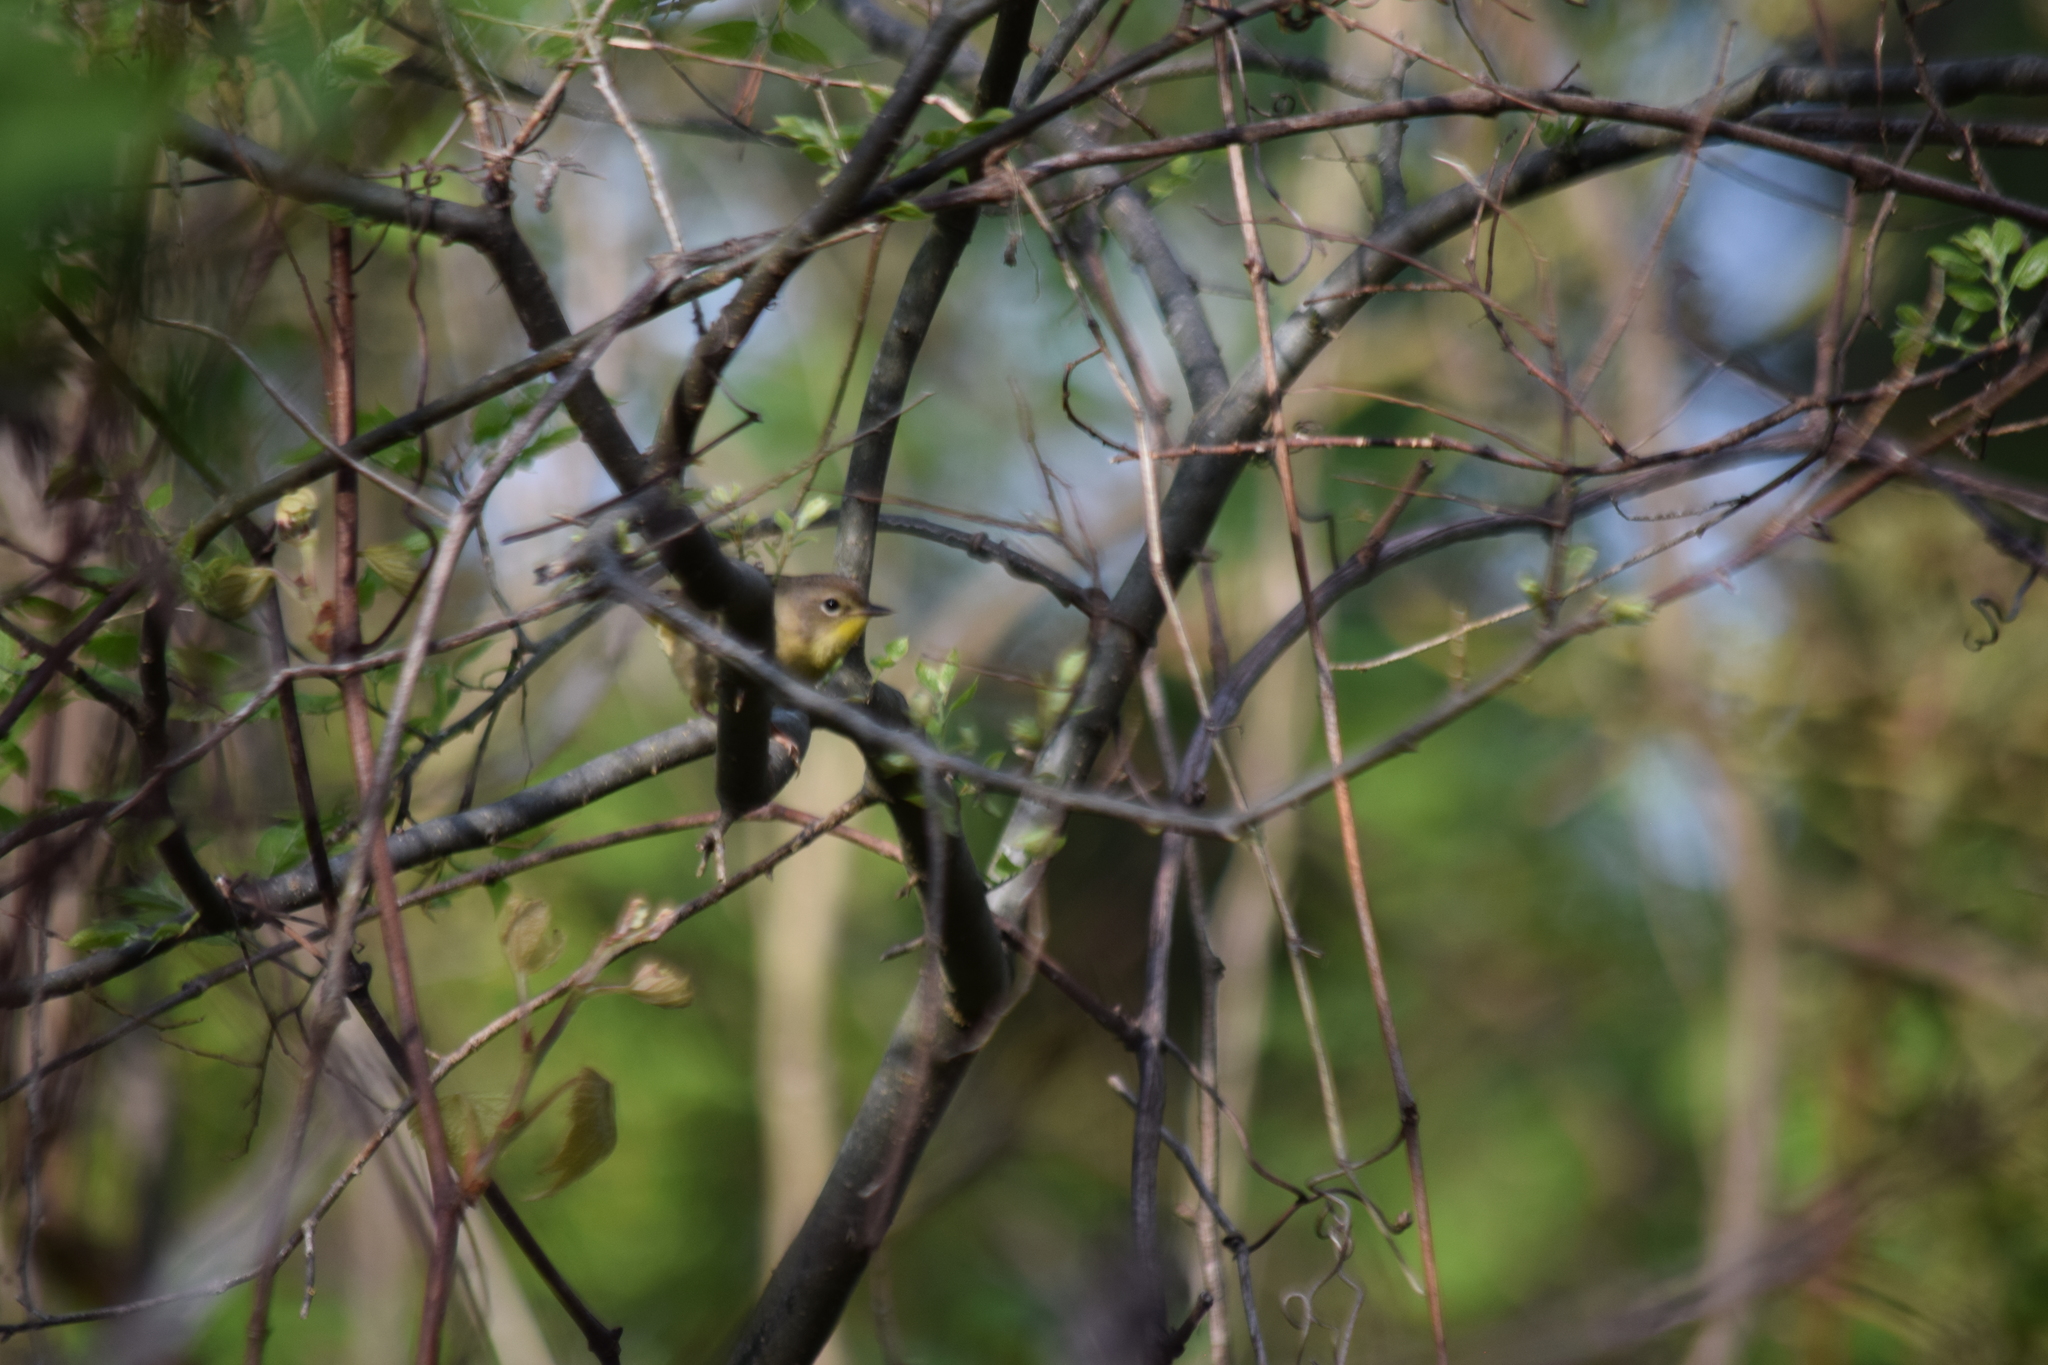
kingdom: Animalia
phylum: Chordata
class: Aves
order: Passeriformes
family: Parulidae
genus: Geothlypis
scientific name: Geothlypis trichas
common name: Common yellowthroat
